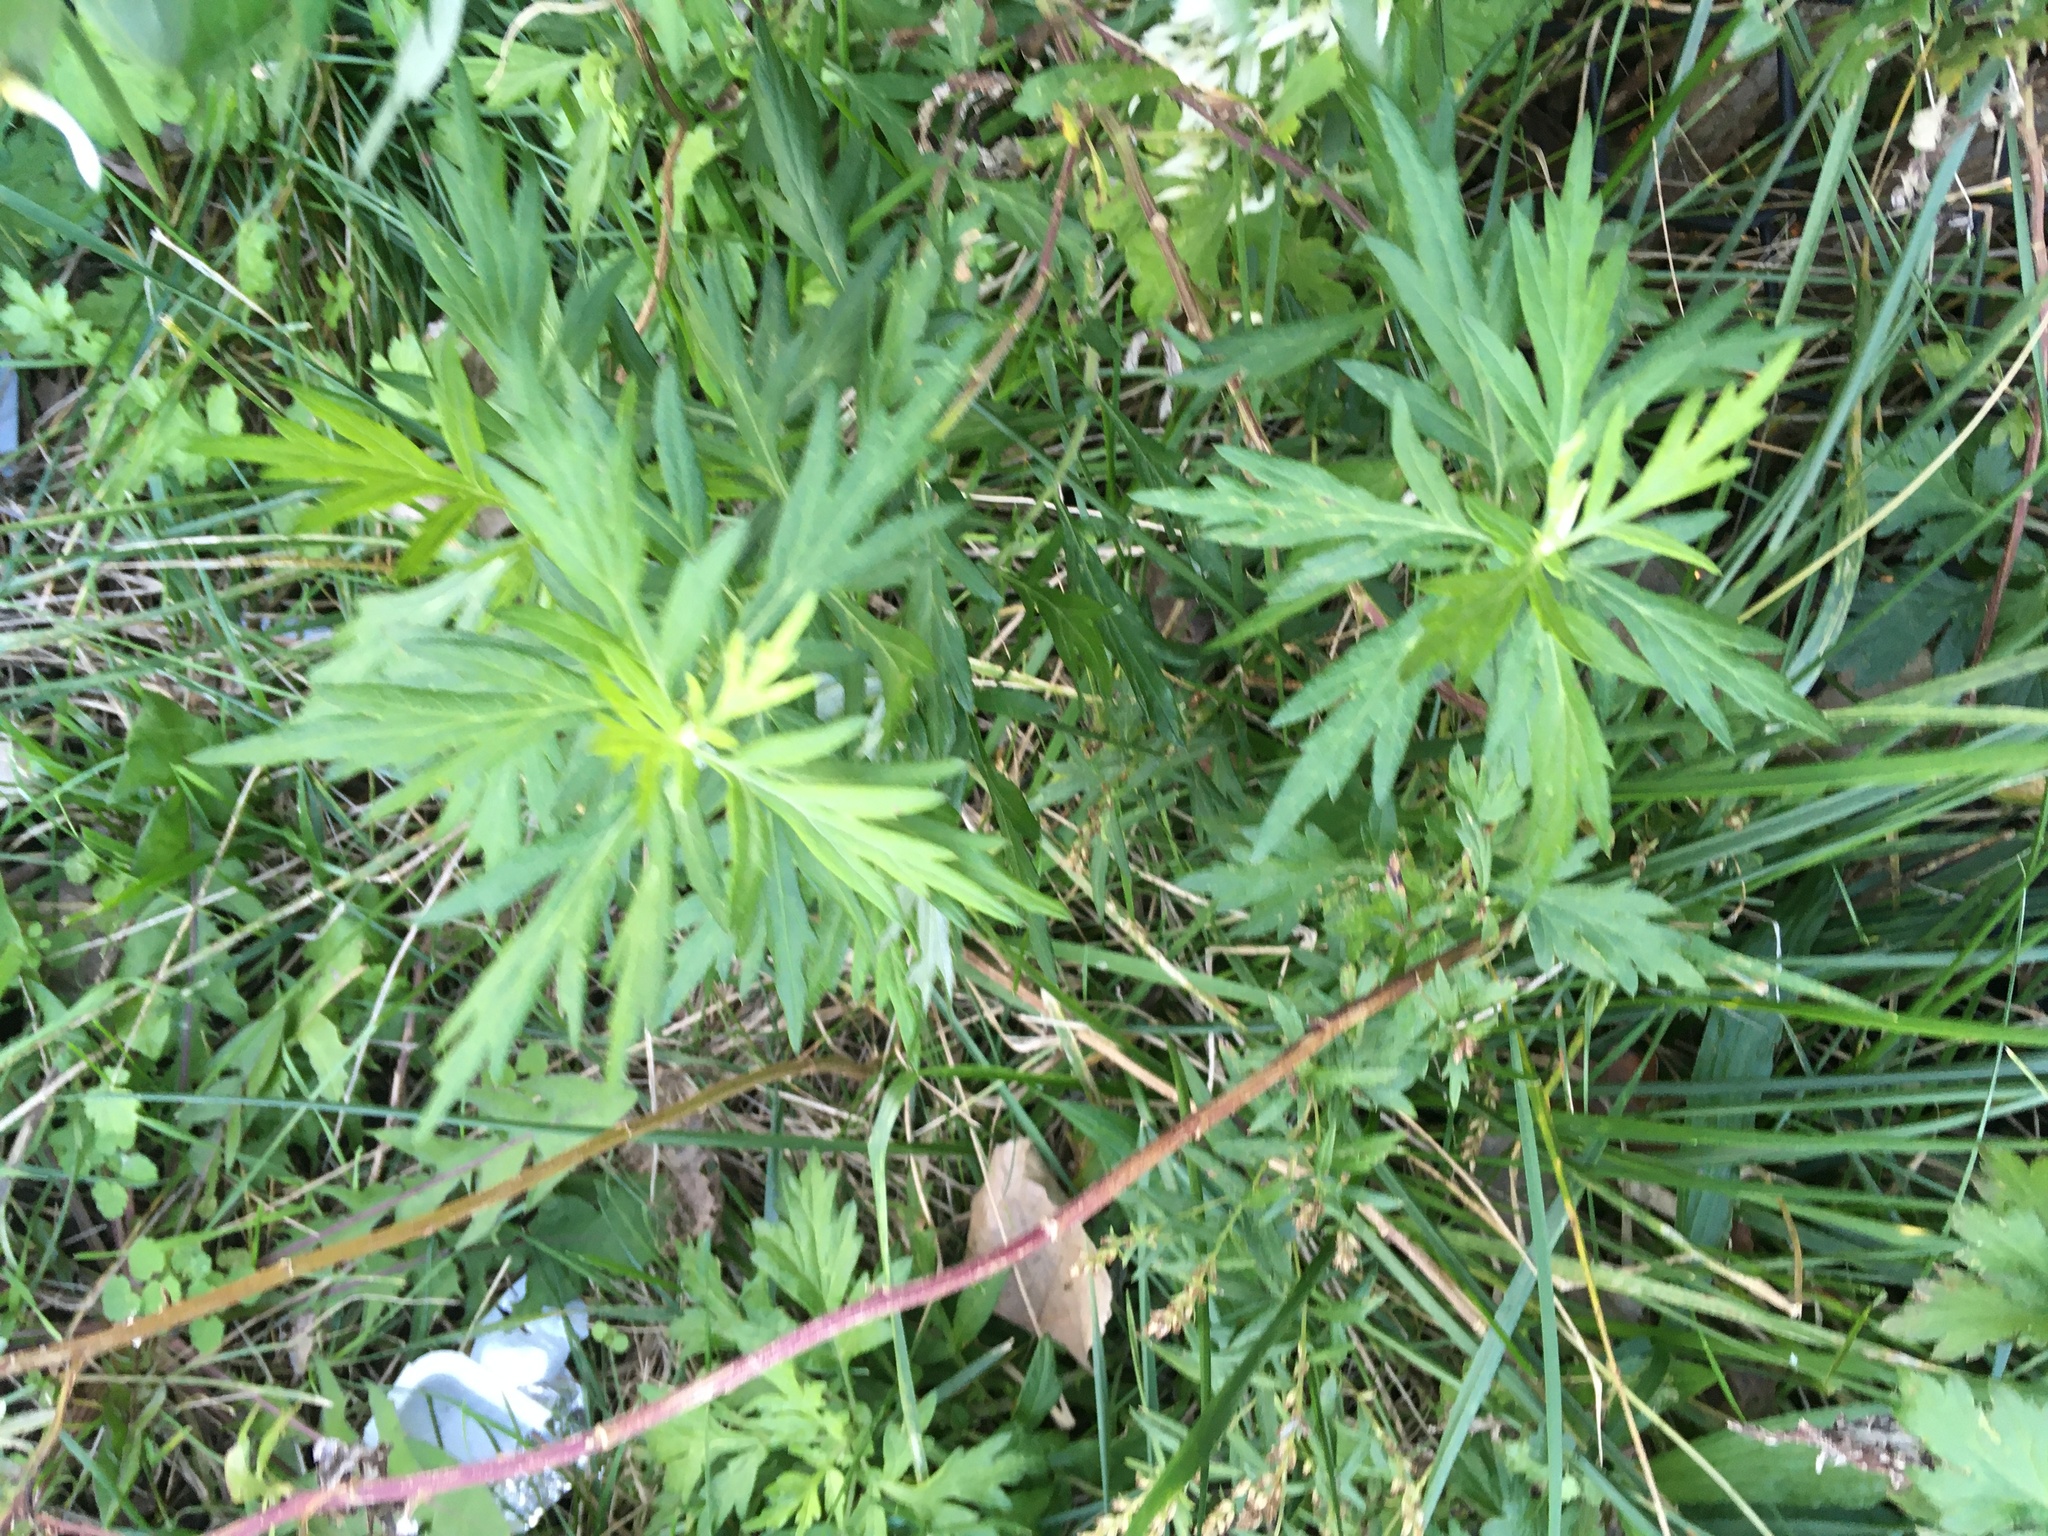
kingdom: Plantae
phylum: Tracheophyta
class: Magnoliopsida
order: Asterales
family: Asteraceae
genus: Artemisia
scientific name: Artemisia vulgaris
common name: Mugwort
